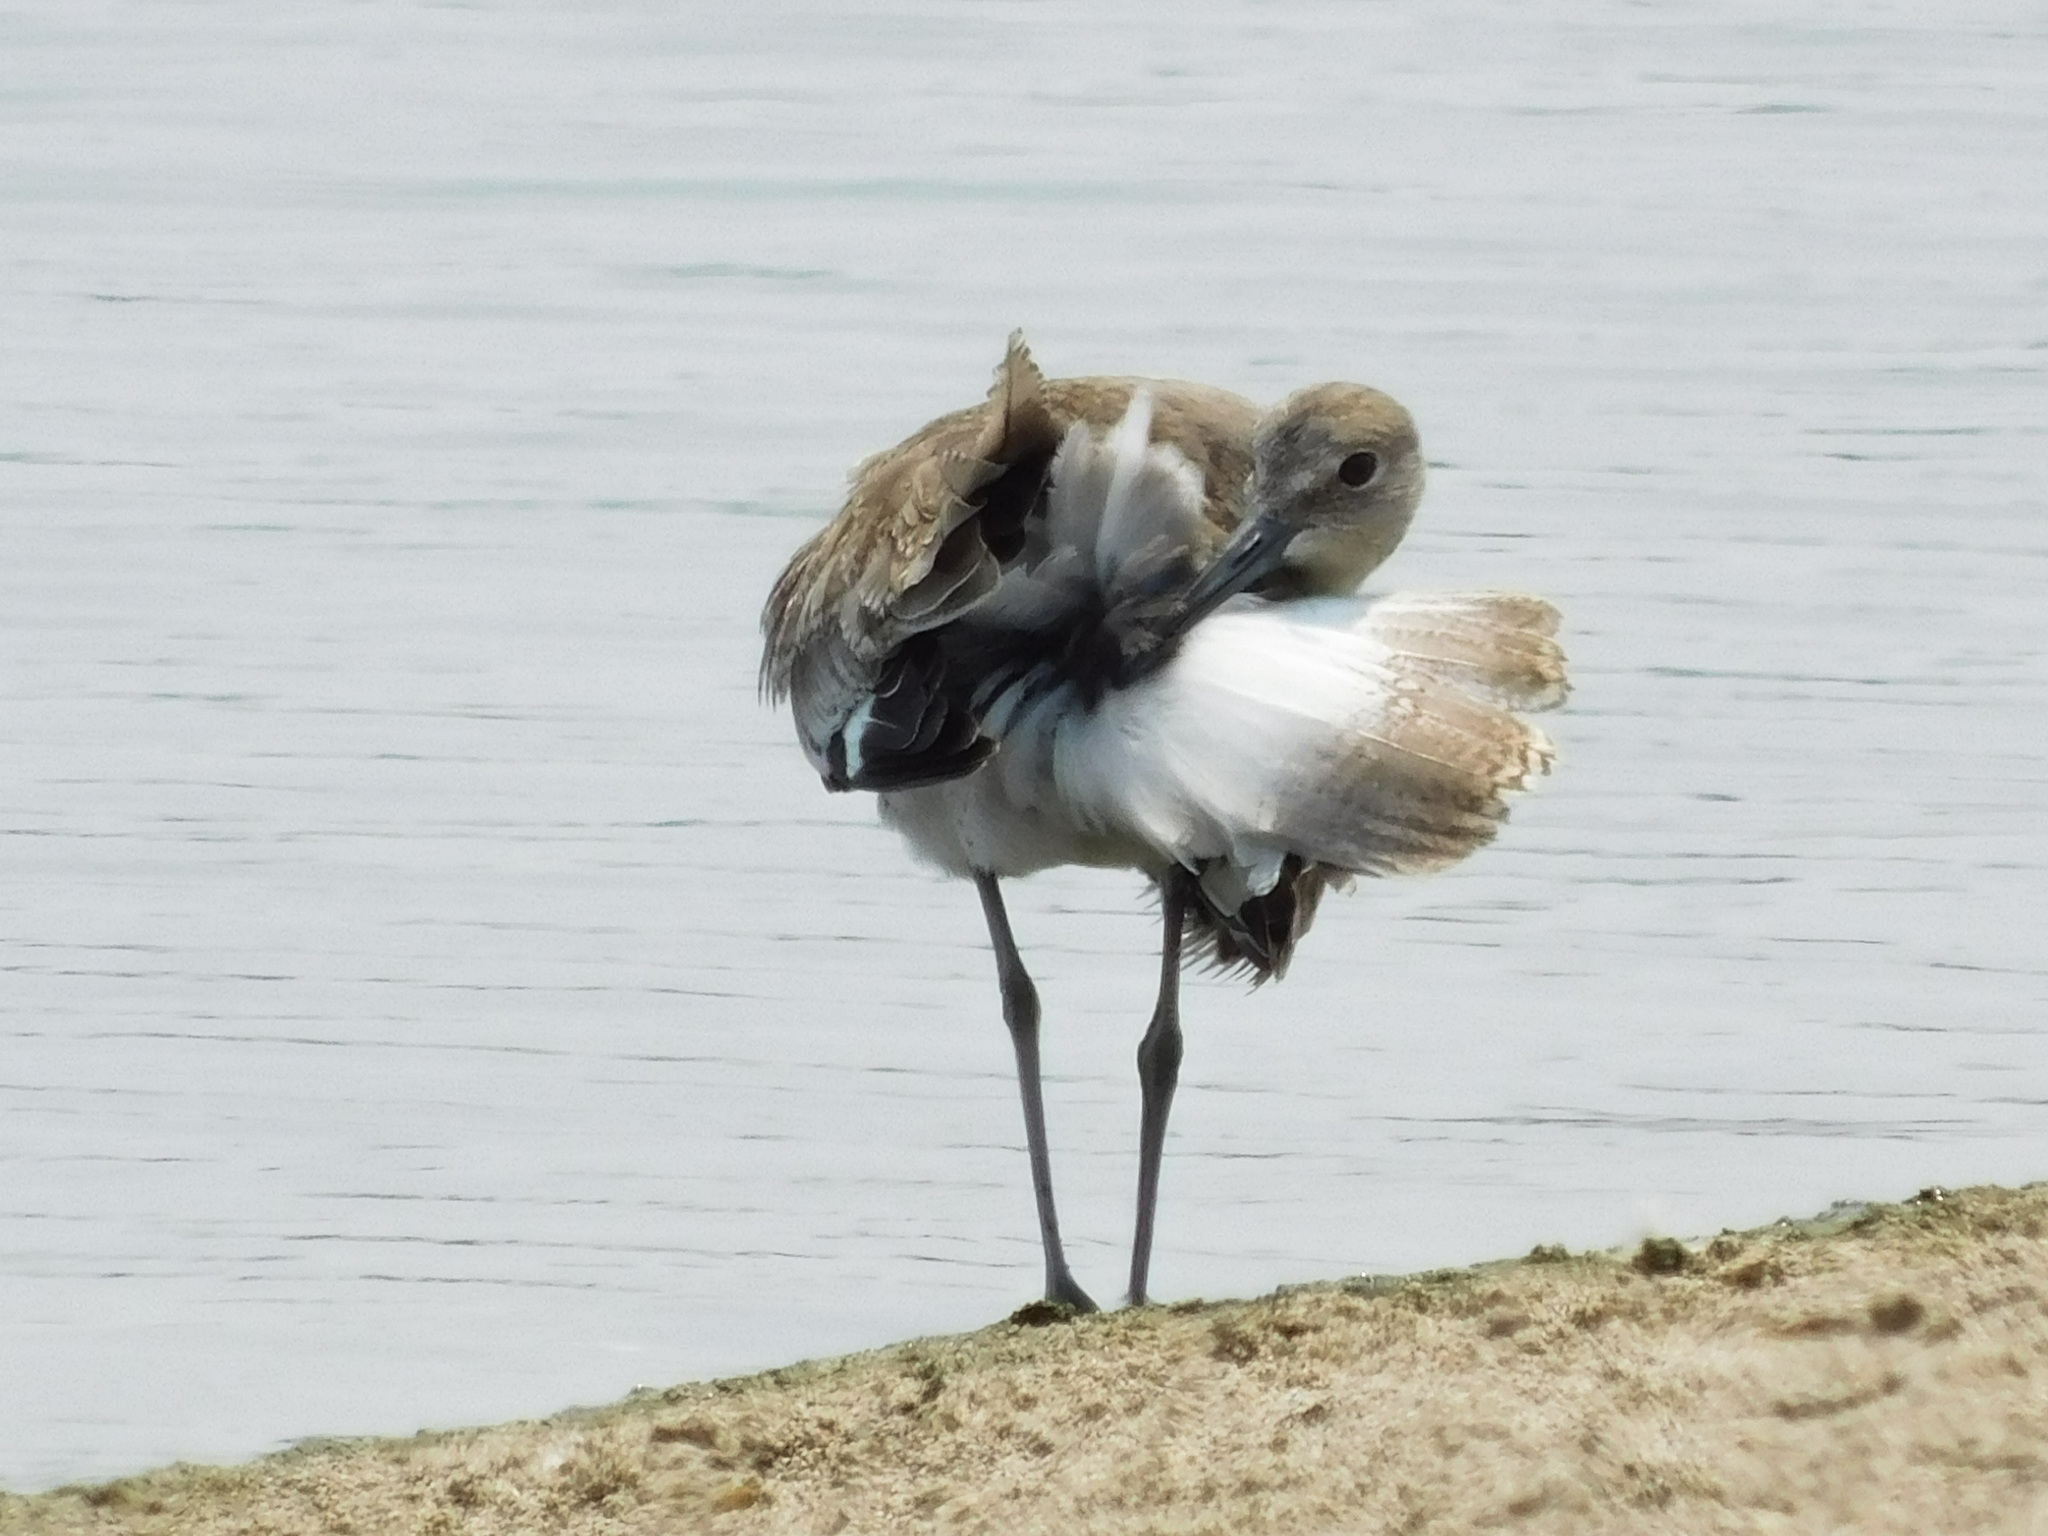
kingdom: Animalia
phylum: Chordata
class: Aves
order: Charadriiformes
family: Scolopacidae
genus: Tringa
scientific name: Tringa semipalmata
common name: Willet
